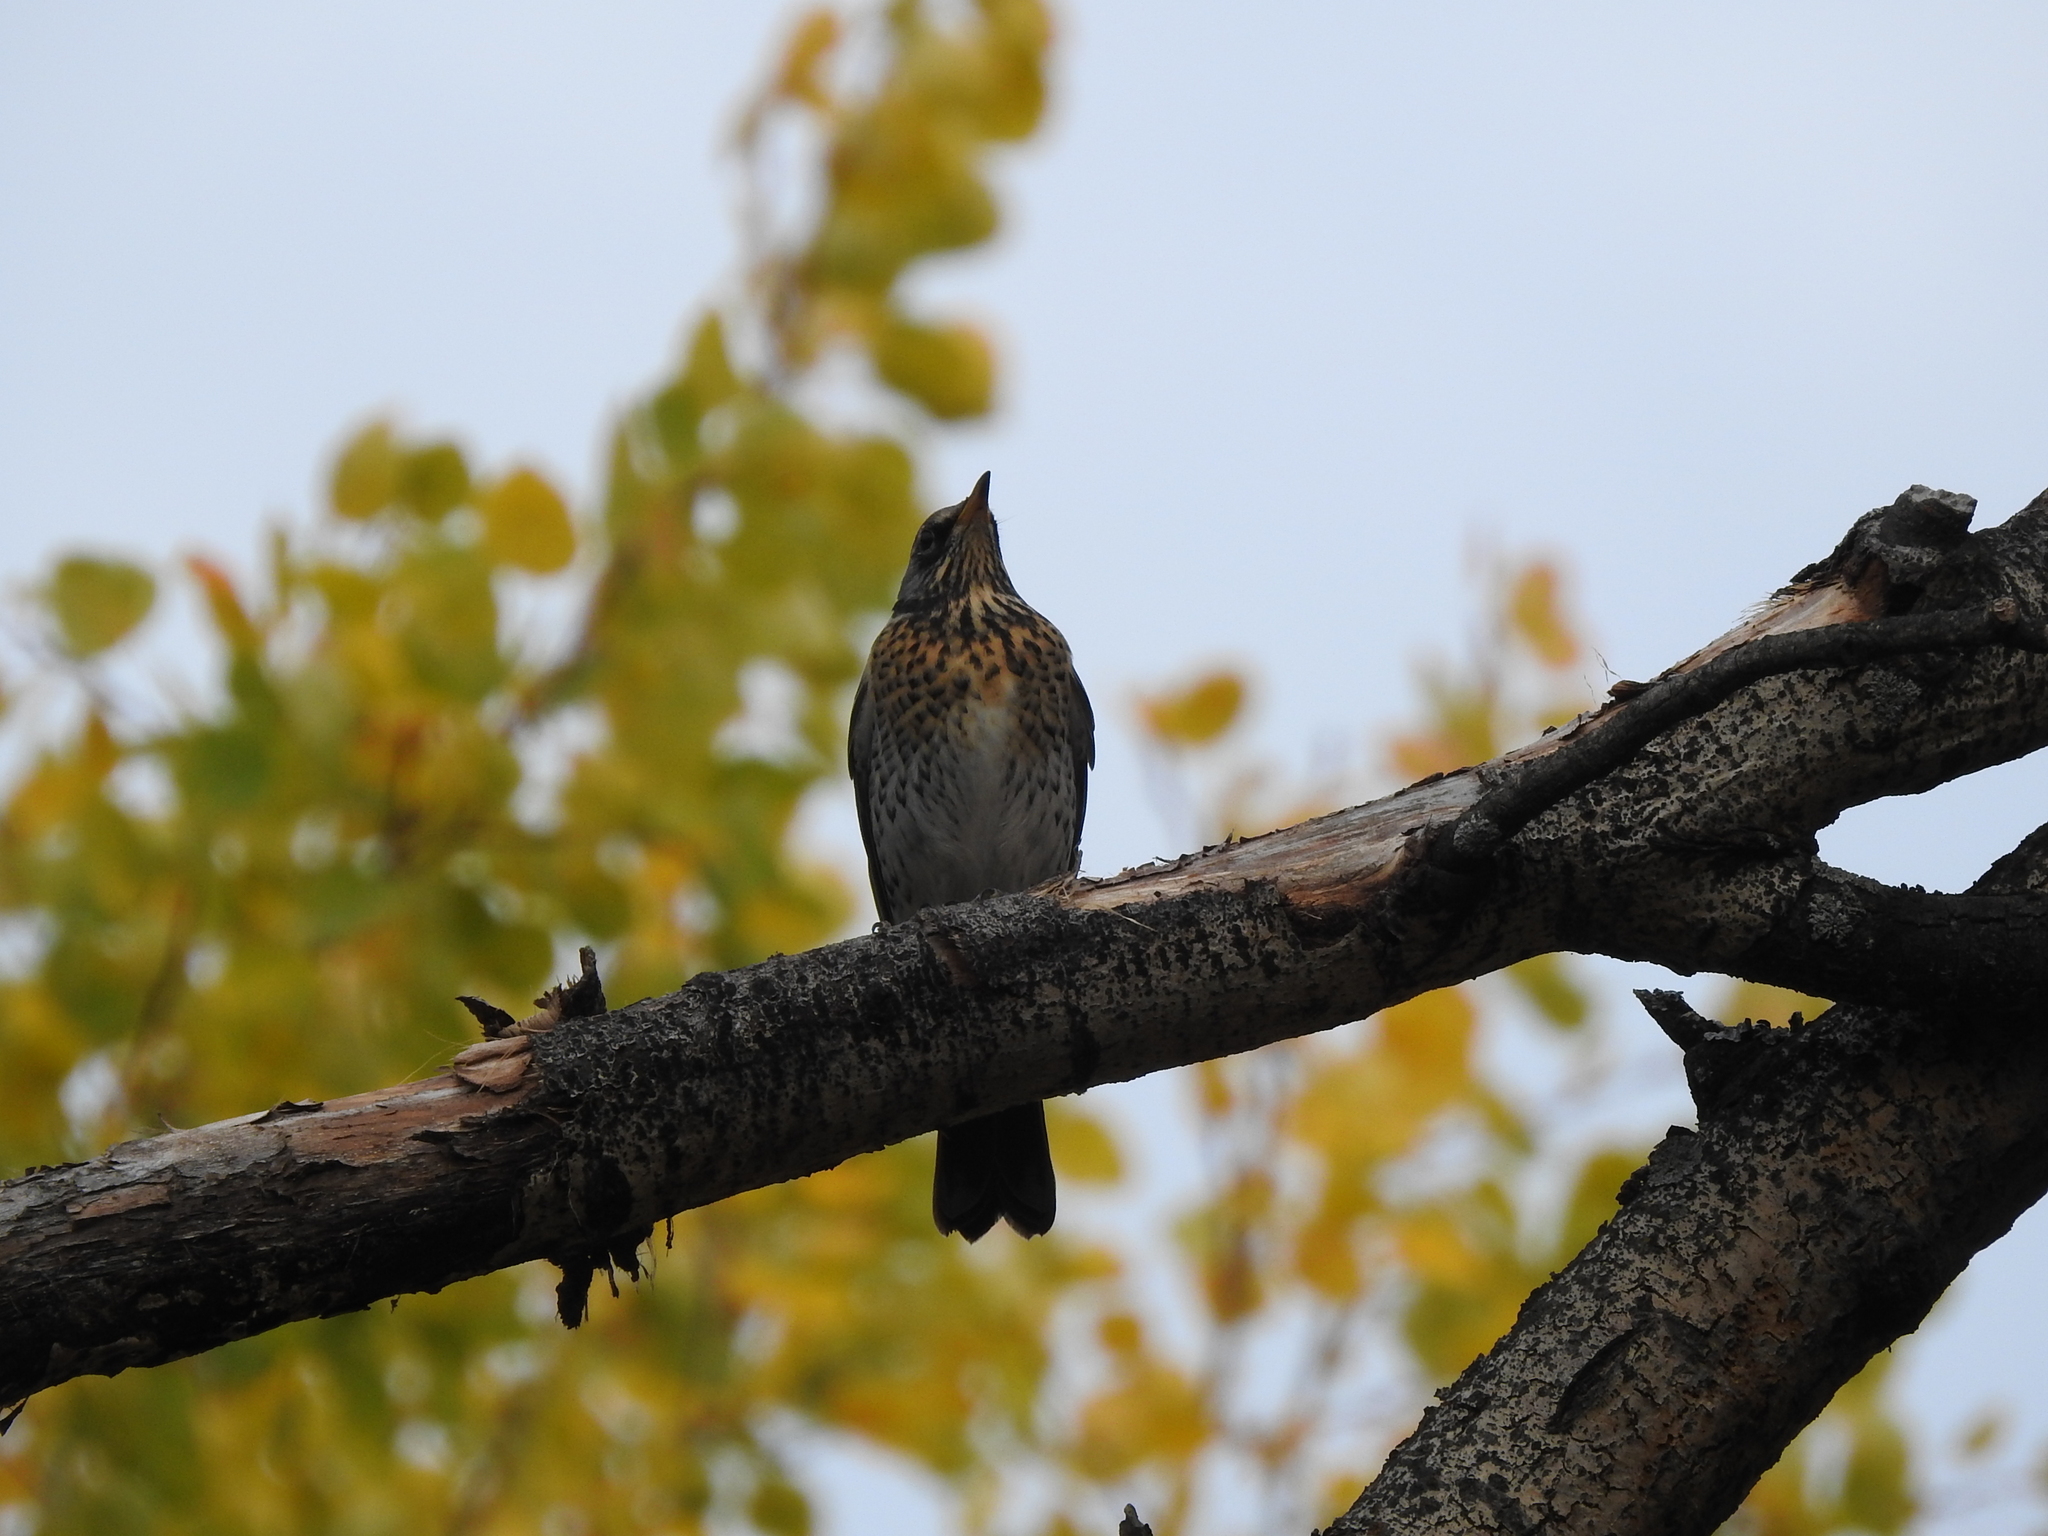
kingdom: Animalia
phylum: Chordata
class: Aves
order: Passeriformes
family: Turdidae
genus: Turdus
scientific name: Turdus pilaris
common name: Fieldfare
